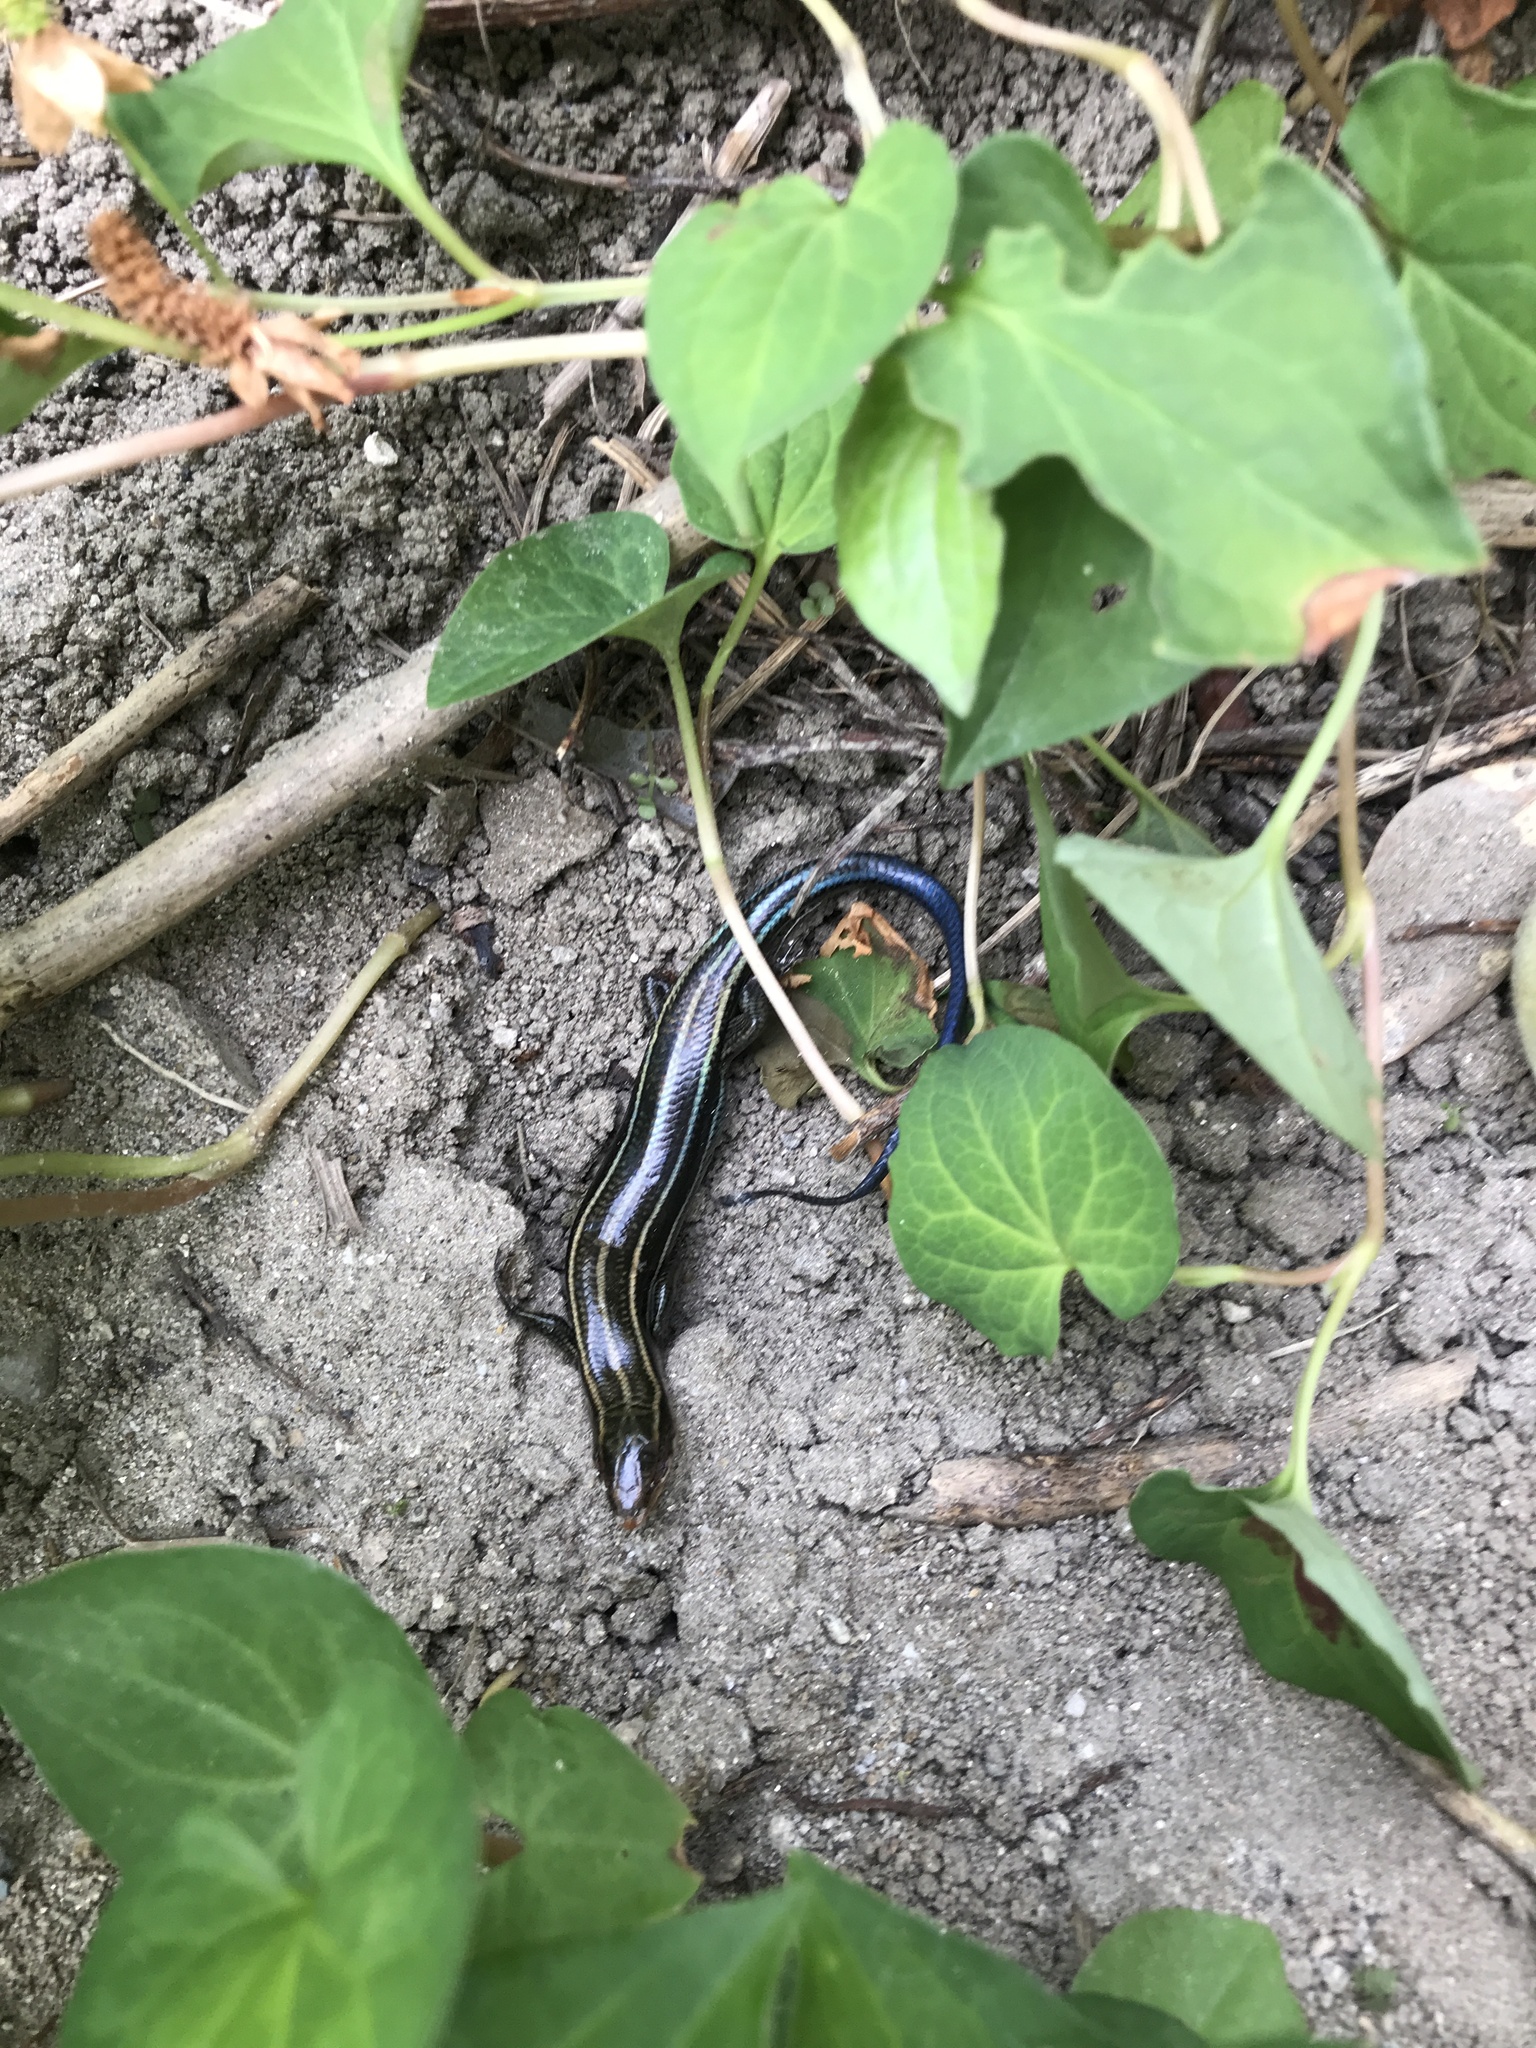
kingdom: Animalia
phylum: Chordata
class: Squamata
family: Scincidae
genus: Plestiodon
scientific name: Plestiodon japonicus
